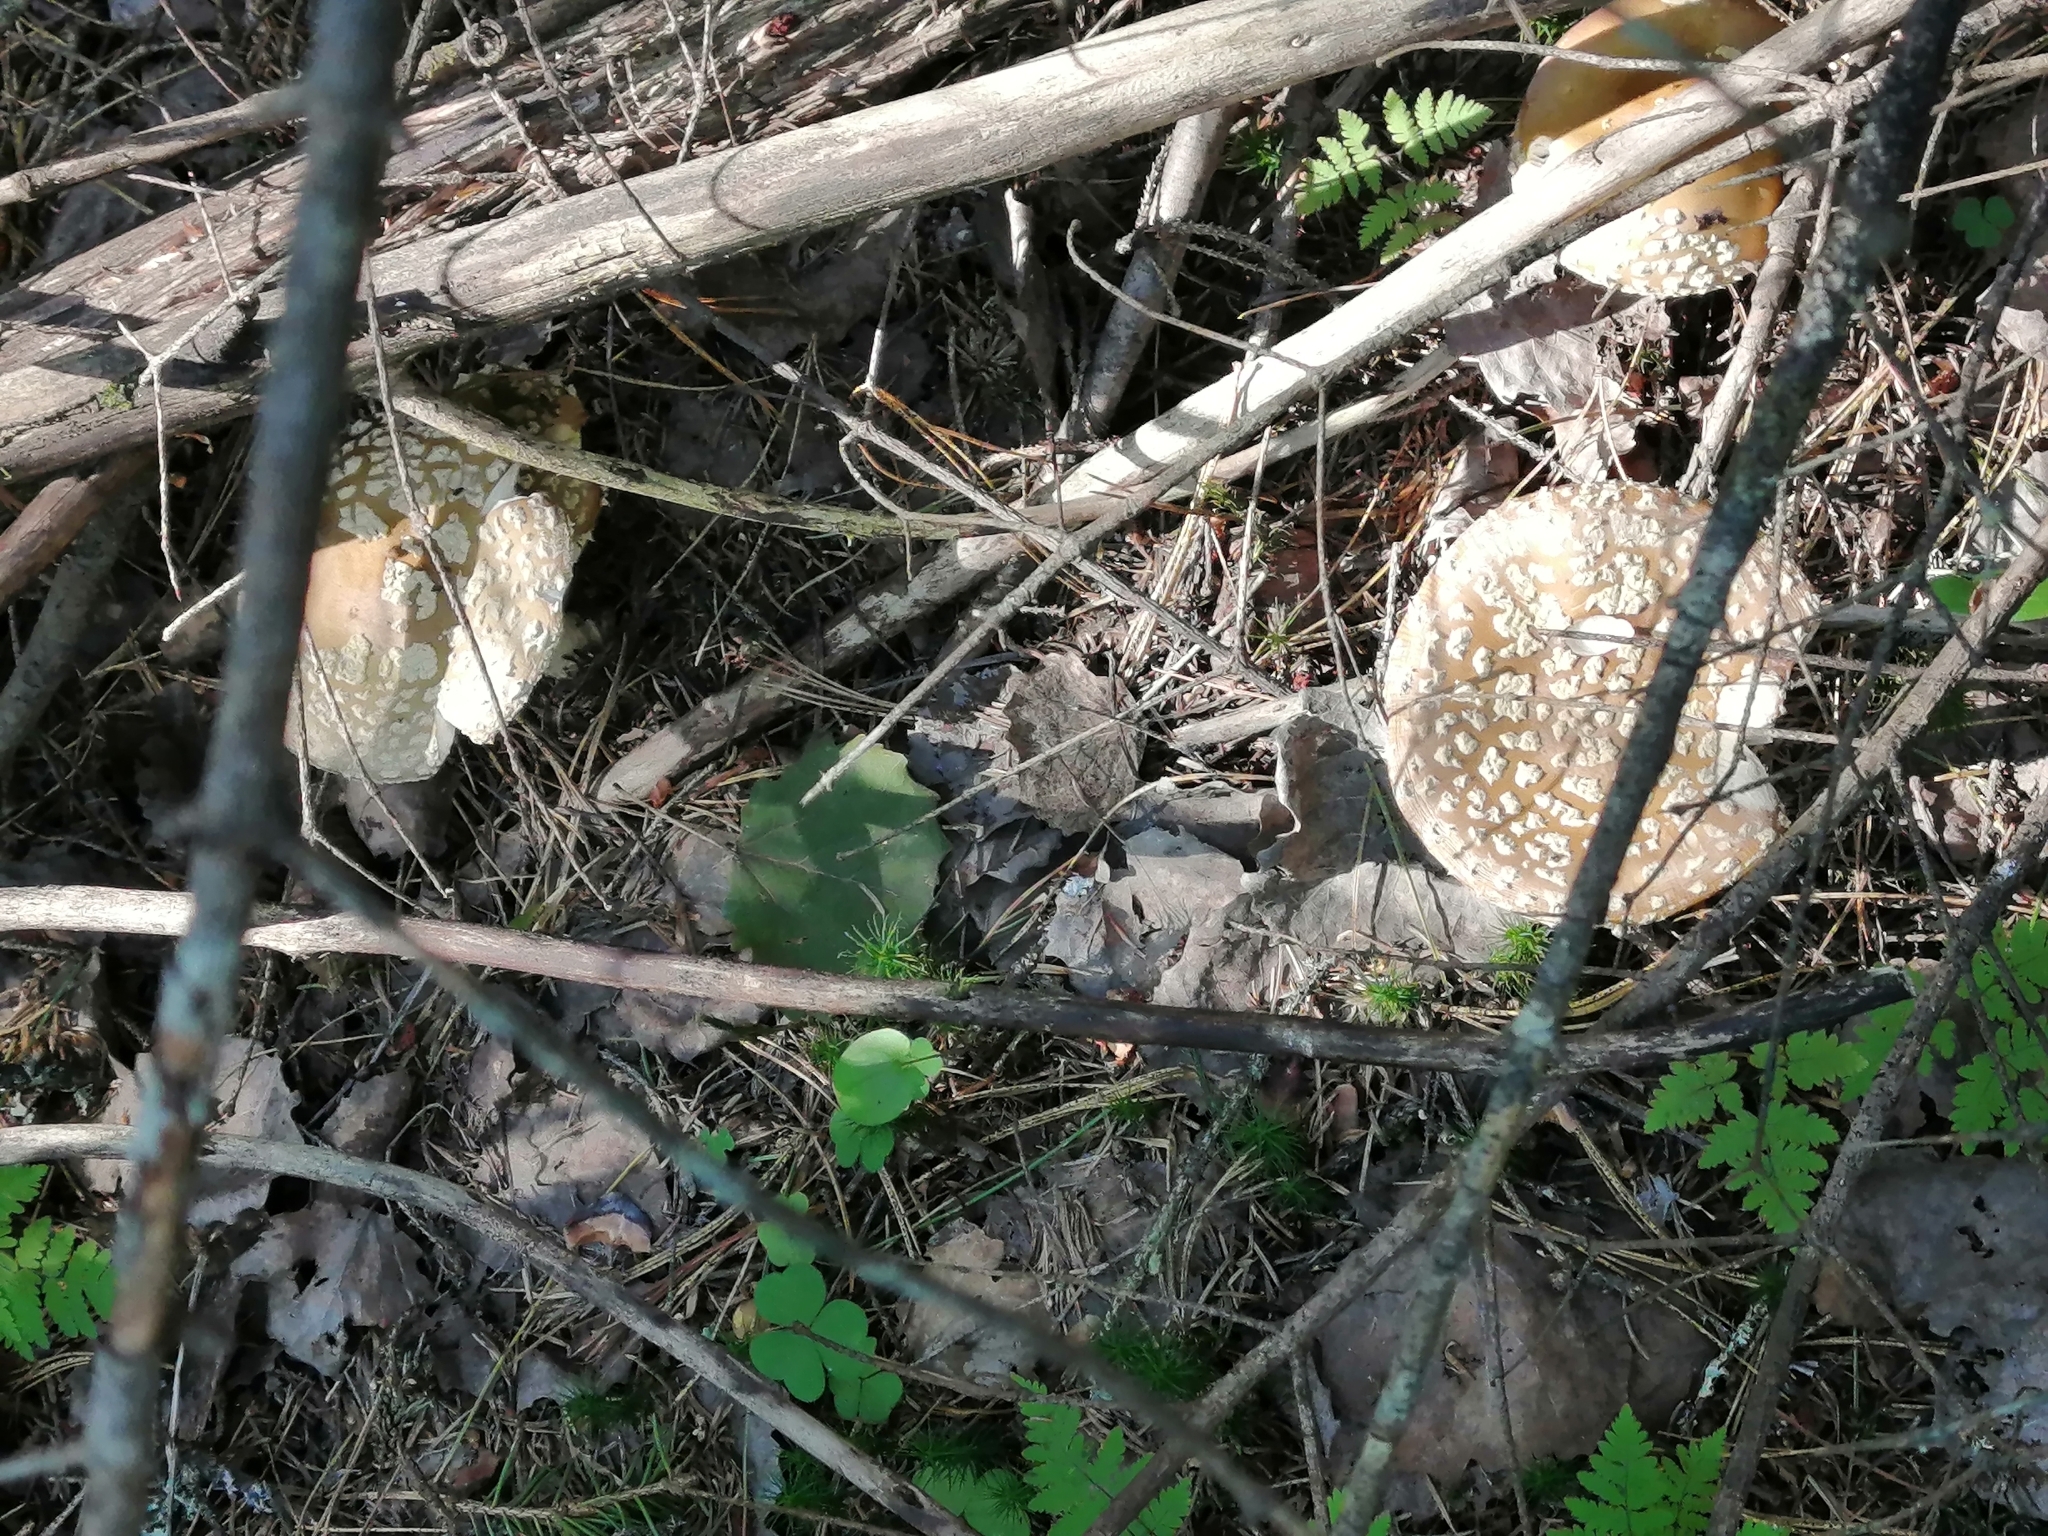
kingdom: Fungi
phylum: Basidiomycota
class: Agaricomycetes
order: Agaricales
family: Amanitaceae
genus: Amanita
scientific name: Amanita regalis
